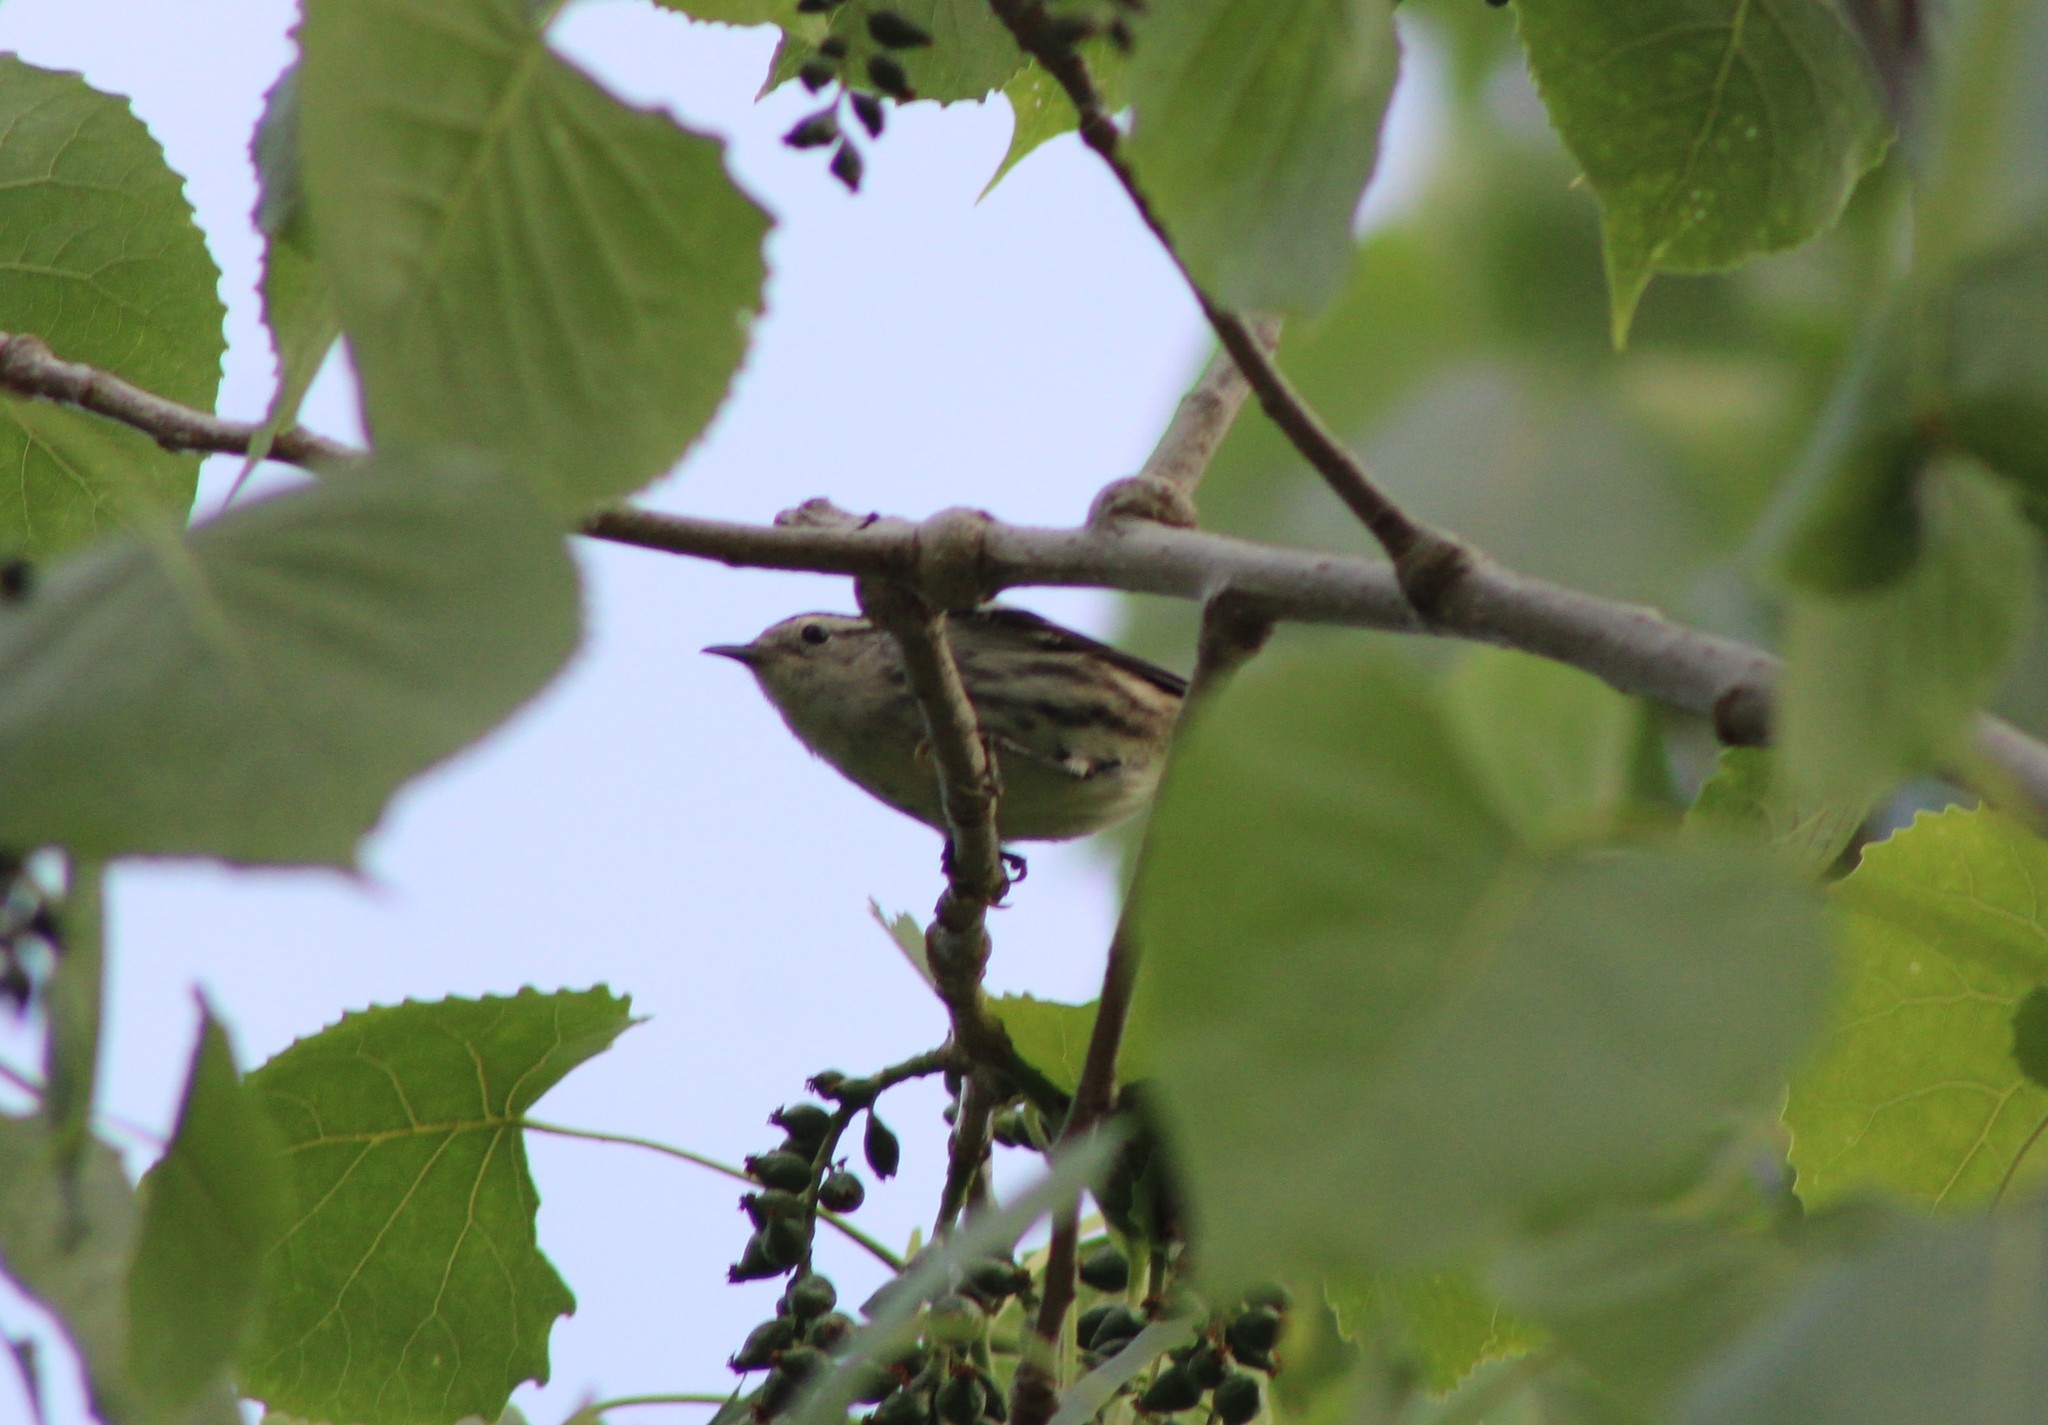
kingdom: Animalia
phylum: Chordata
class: Aves
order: Passeriformes
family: Parulidae
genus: Mniotilta
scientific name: Mniotilta varia
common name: Black-and-white warbler
